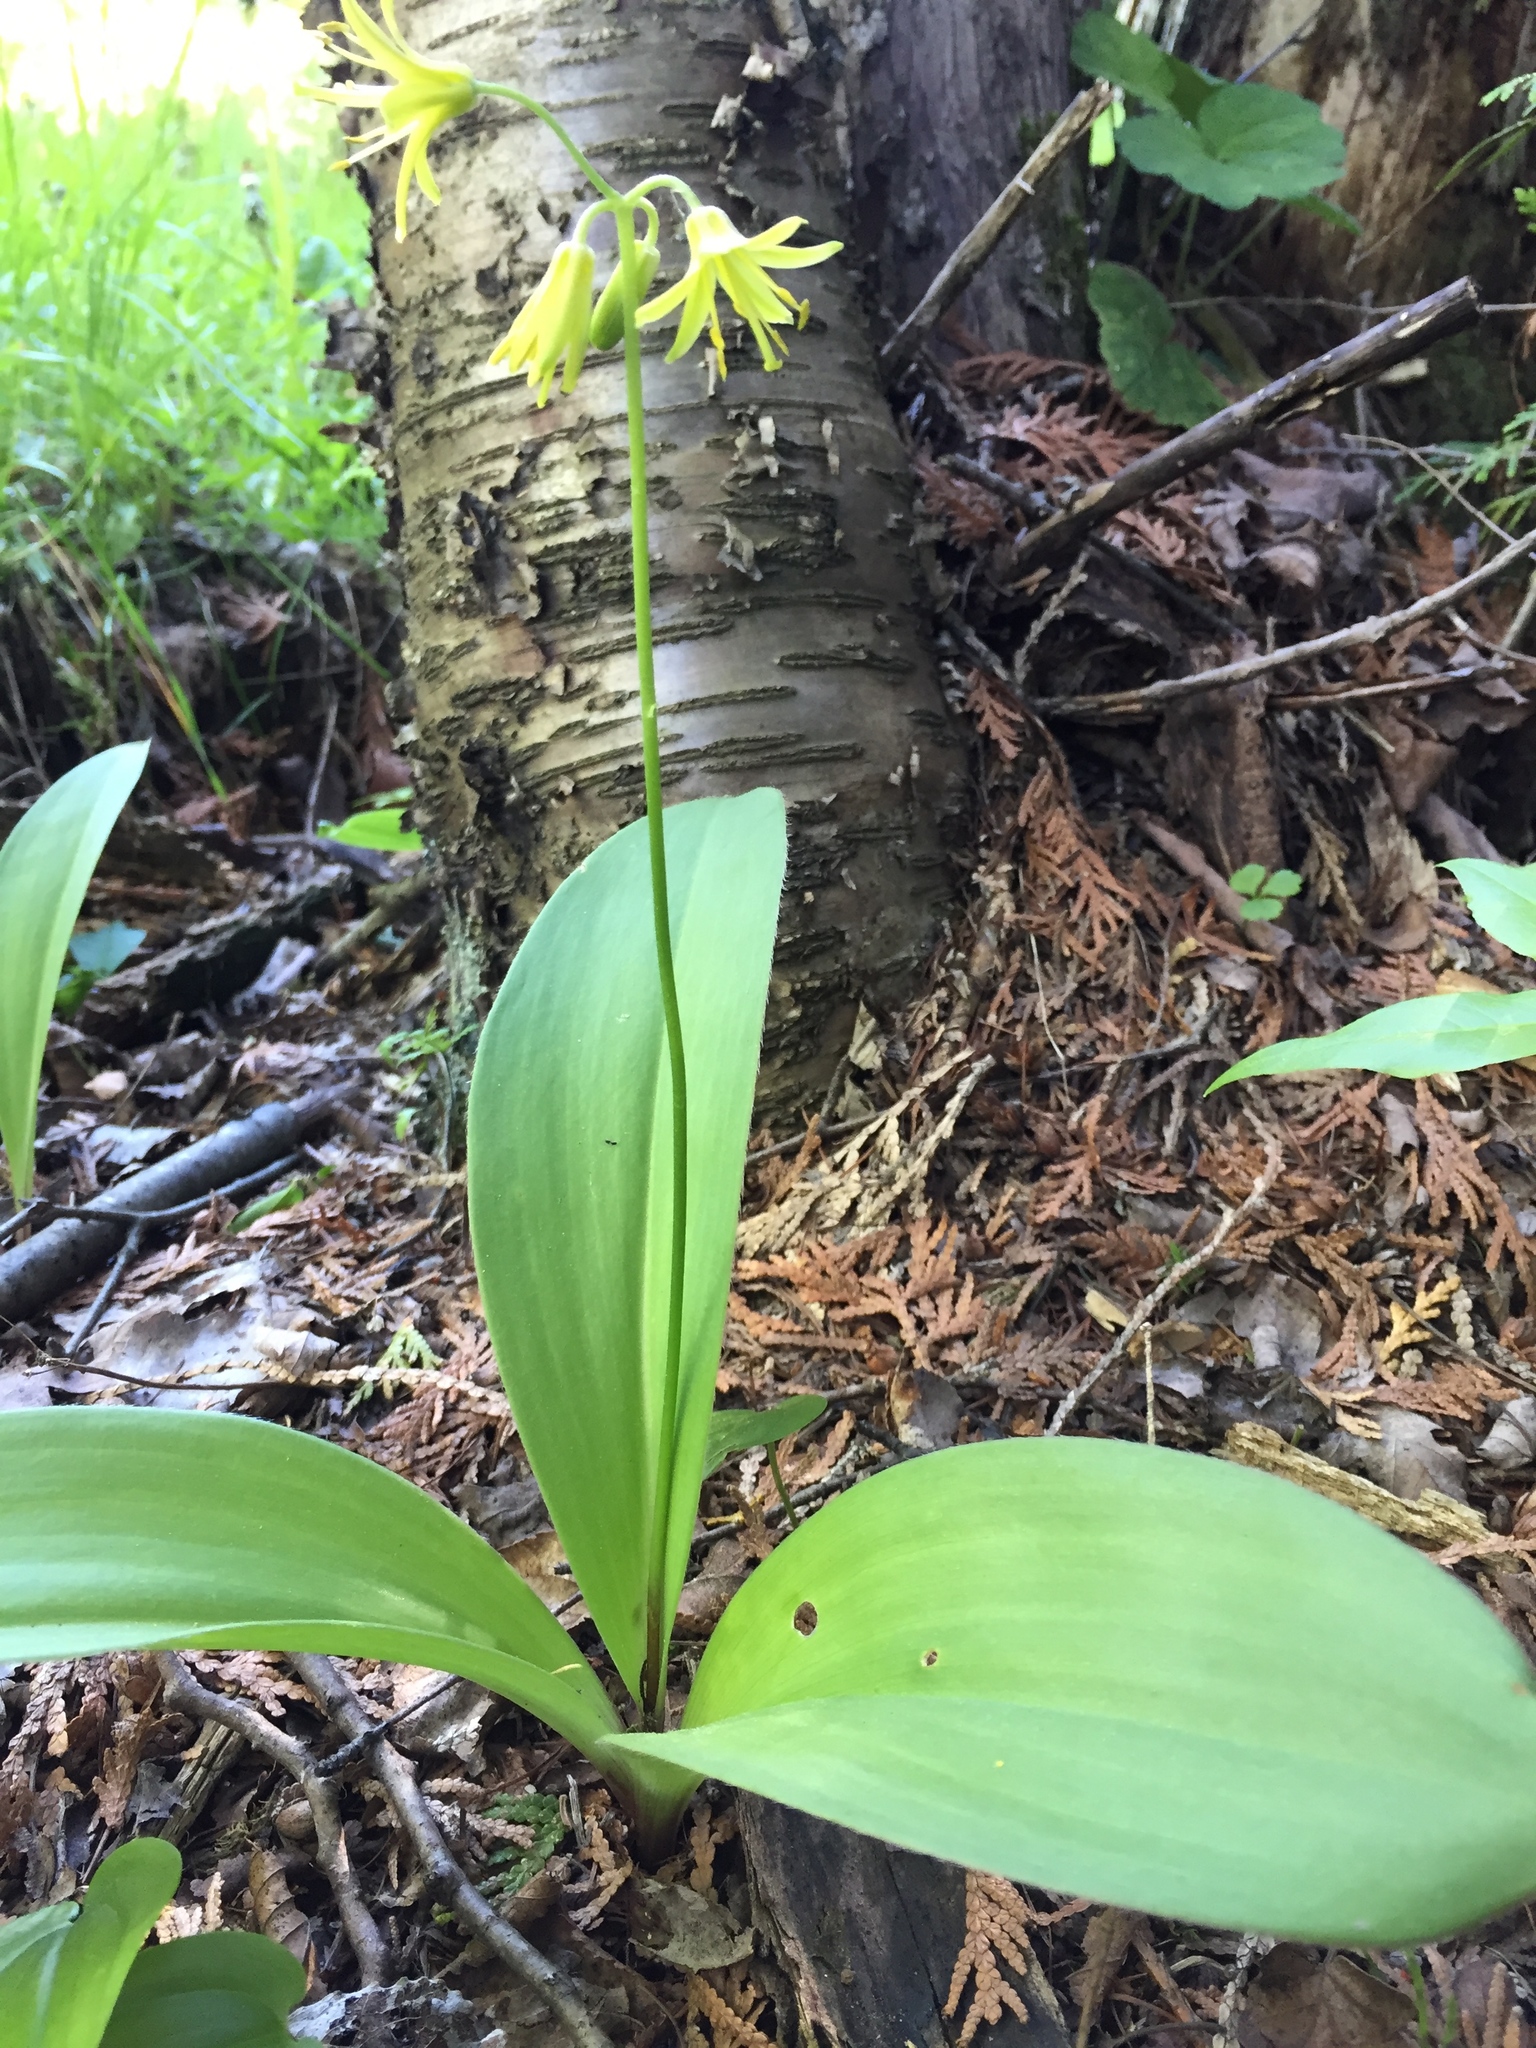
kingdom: Plantae
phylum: Tracheophyta
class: Liliopsida
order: Liliales
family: Liliaceae
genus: Clintonia
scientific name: Clintonia borealis
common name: Yellow clintonia
